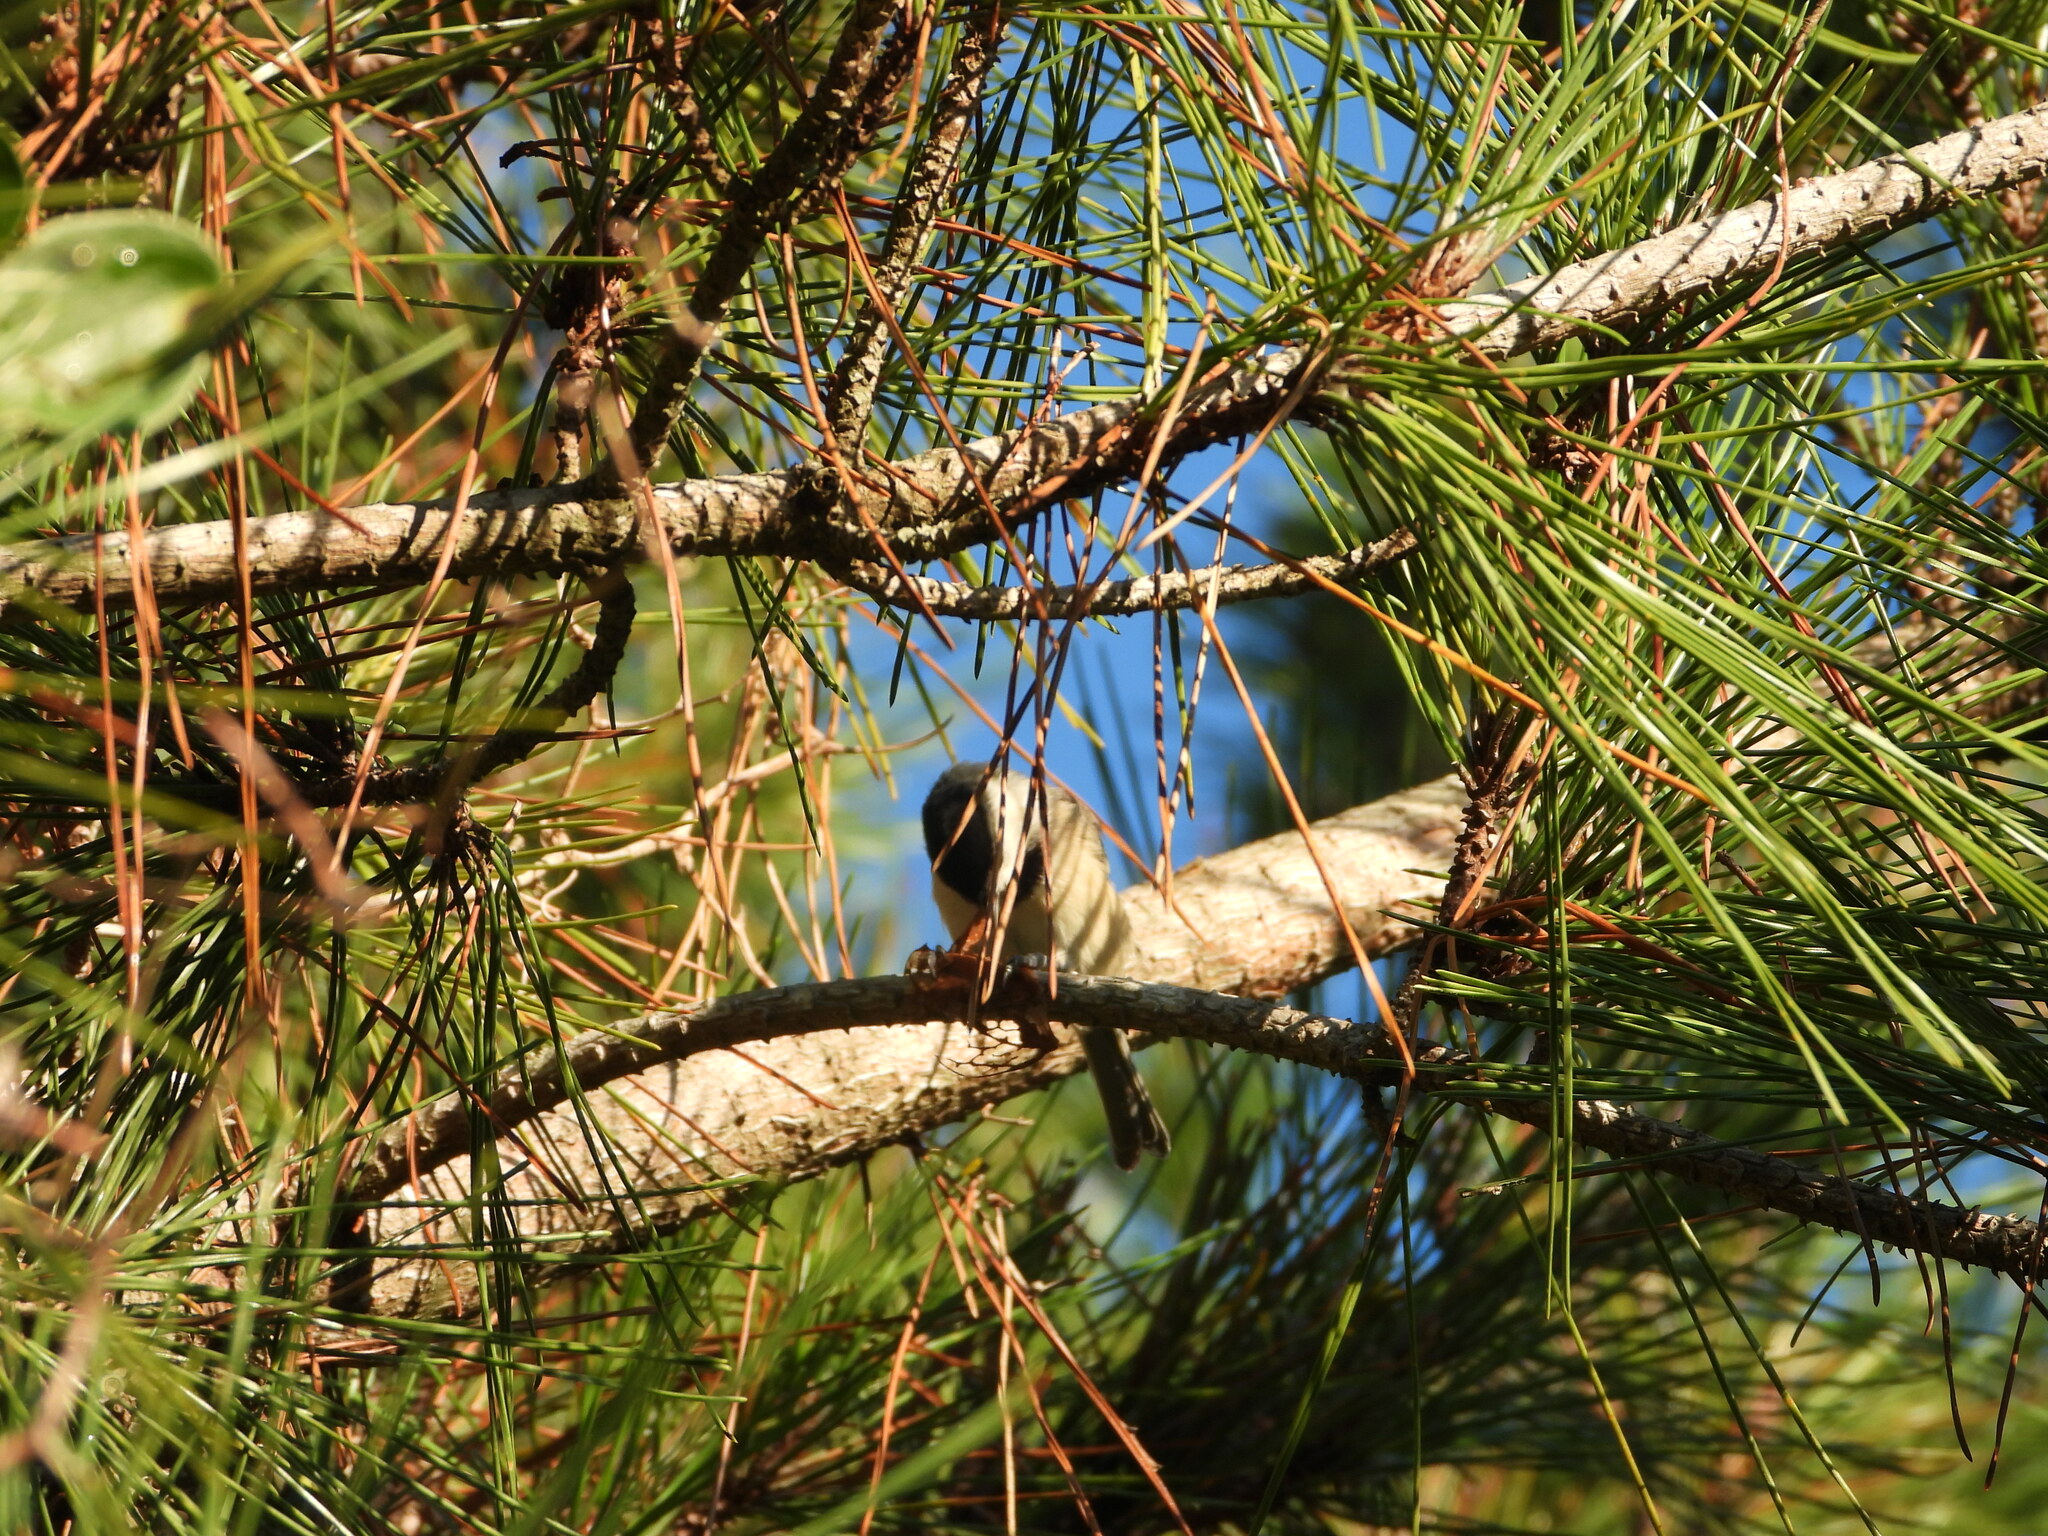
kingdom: Animalia
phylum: Chordata
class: Aves
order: Passeriformes
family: Paridae
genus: Poecile
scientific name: Poecile carolinensis
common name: Carolina chickadee
